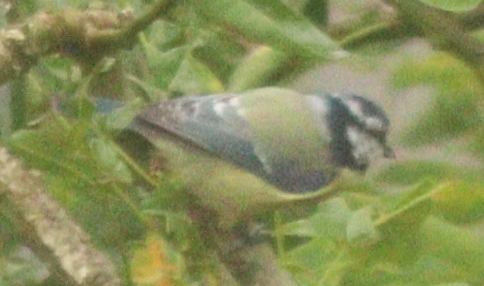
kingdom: Animalia
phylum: Chordata
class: Aves
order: Passeriformes
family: Paridae
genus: Cyanistes
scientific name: Cyanistes caeruleus
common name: Eurasian blue tit
